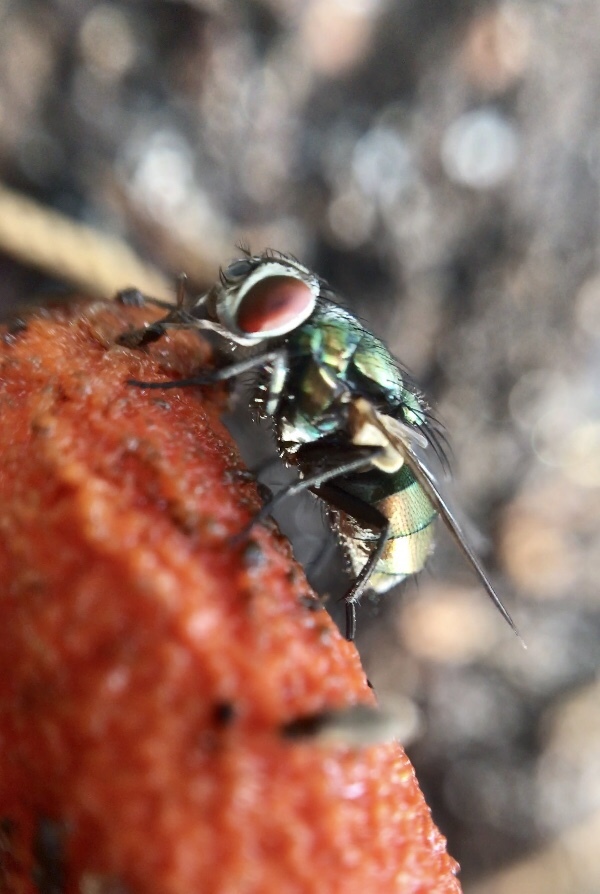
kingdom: Animalia
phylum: Arthropoda
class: Insecta
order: Diptera
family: Calliphoridae
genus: Lucilia
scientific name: Lucilia
